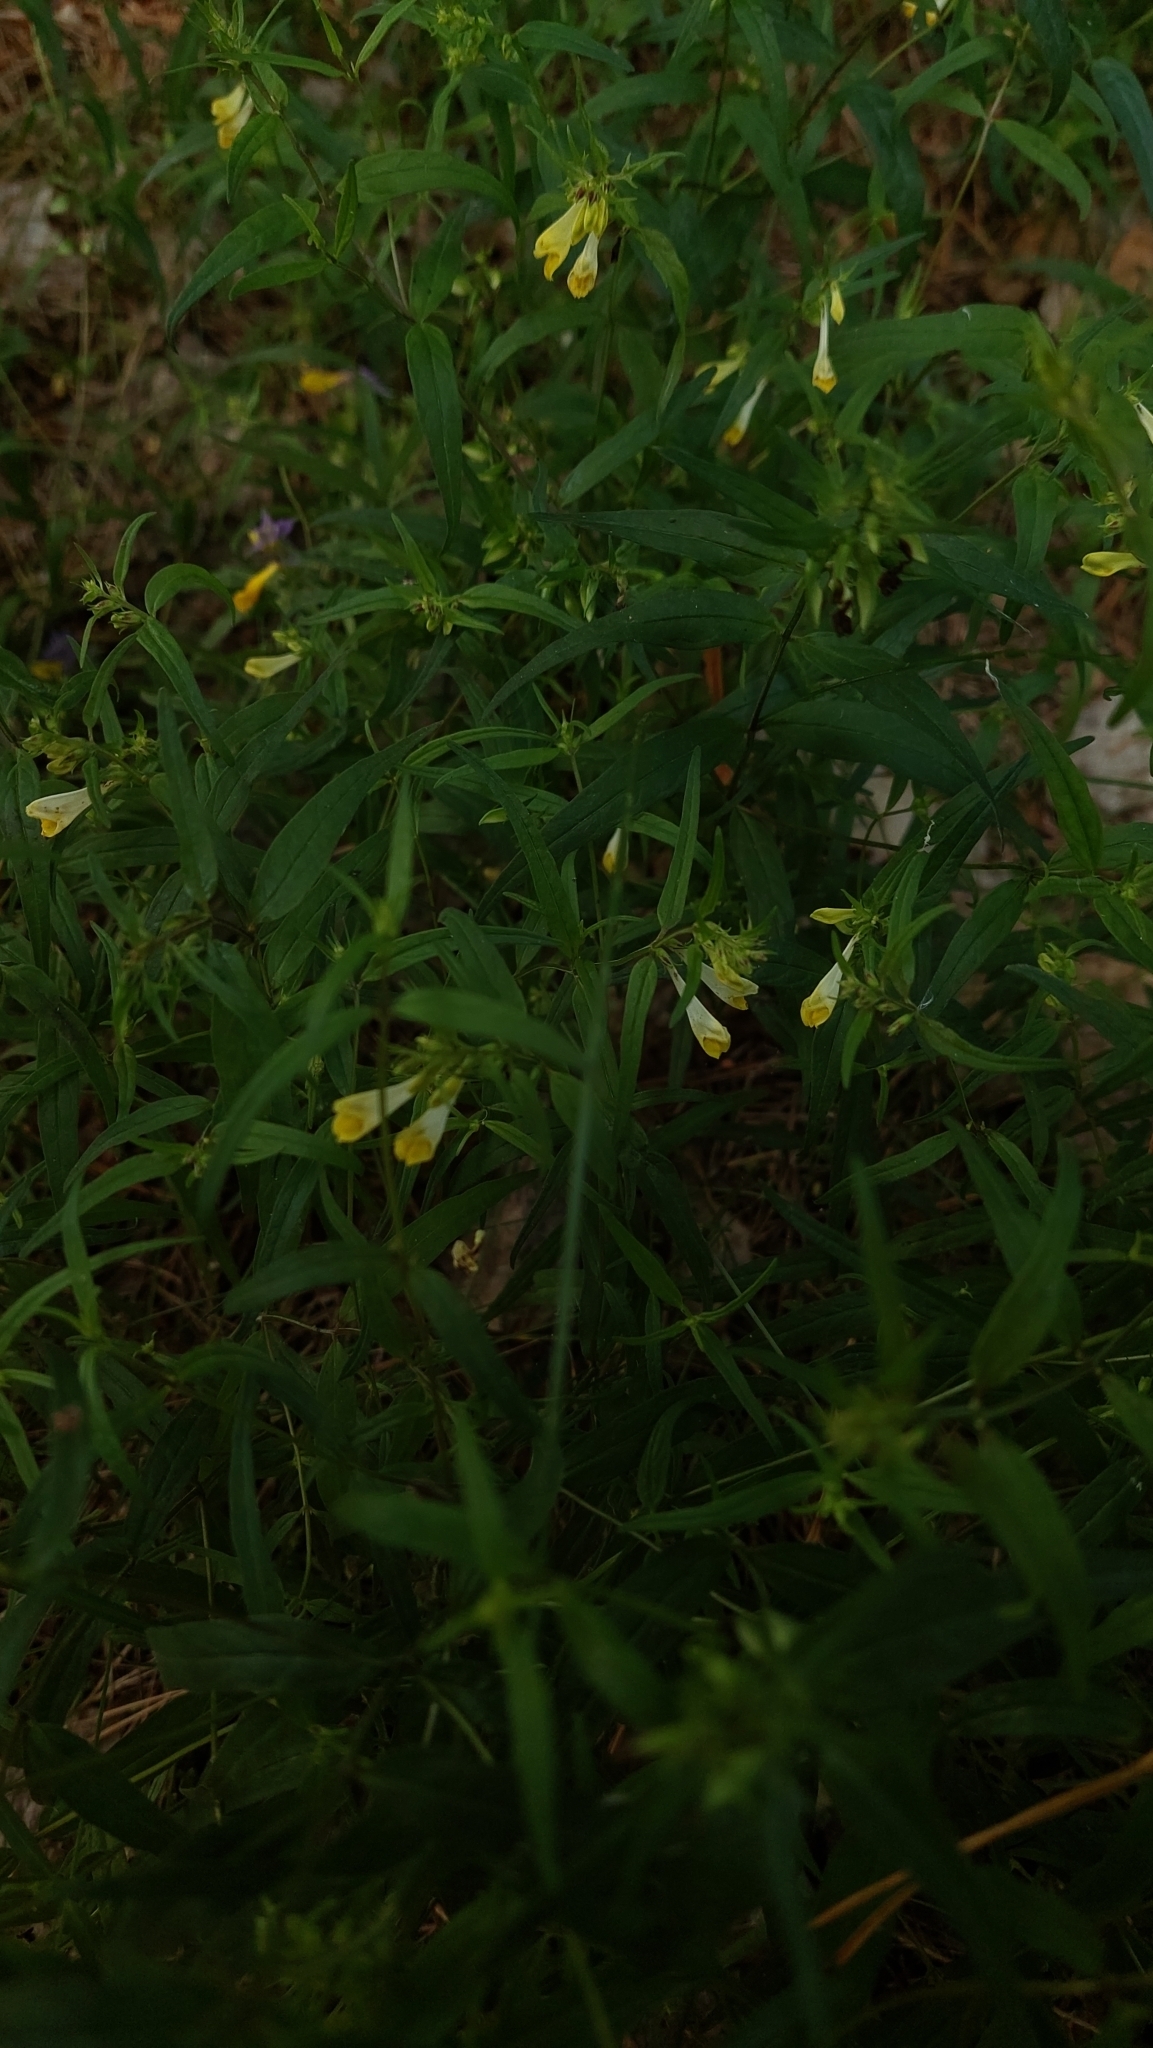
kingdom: Plantae
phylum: Tracheophyta
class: Magnoliopsida
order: Lamiales
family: Orobanchaceae
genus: Melampyrum
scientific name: Melampyrum pratense
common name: Common cow-wheat
